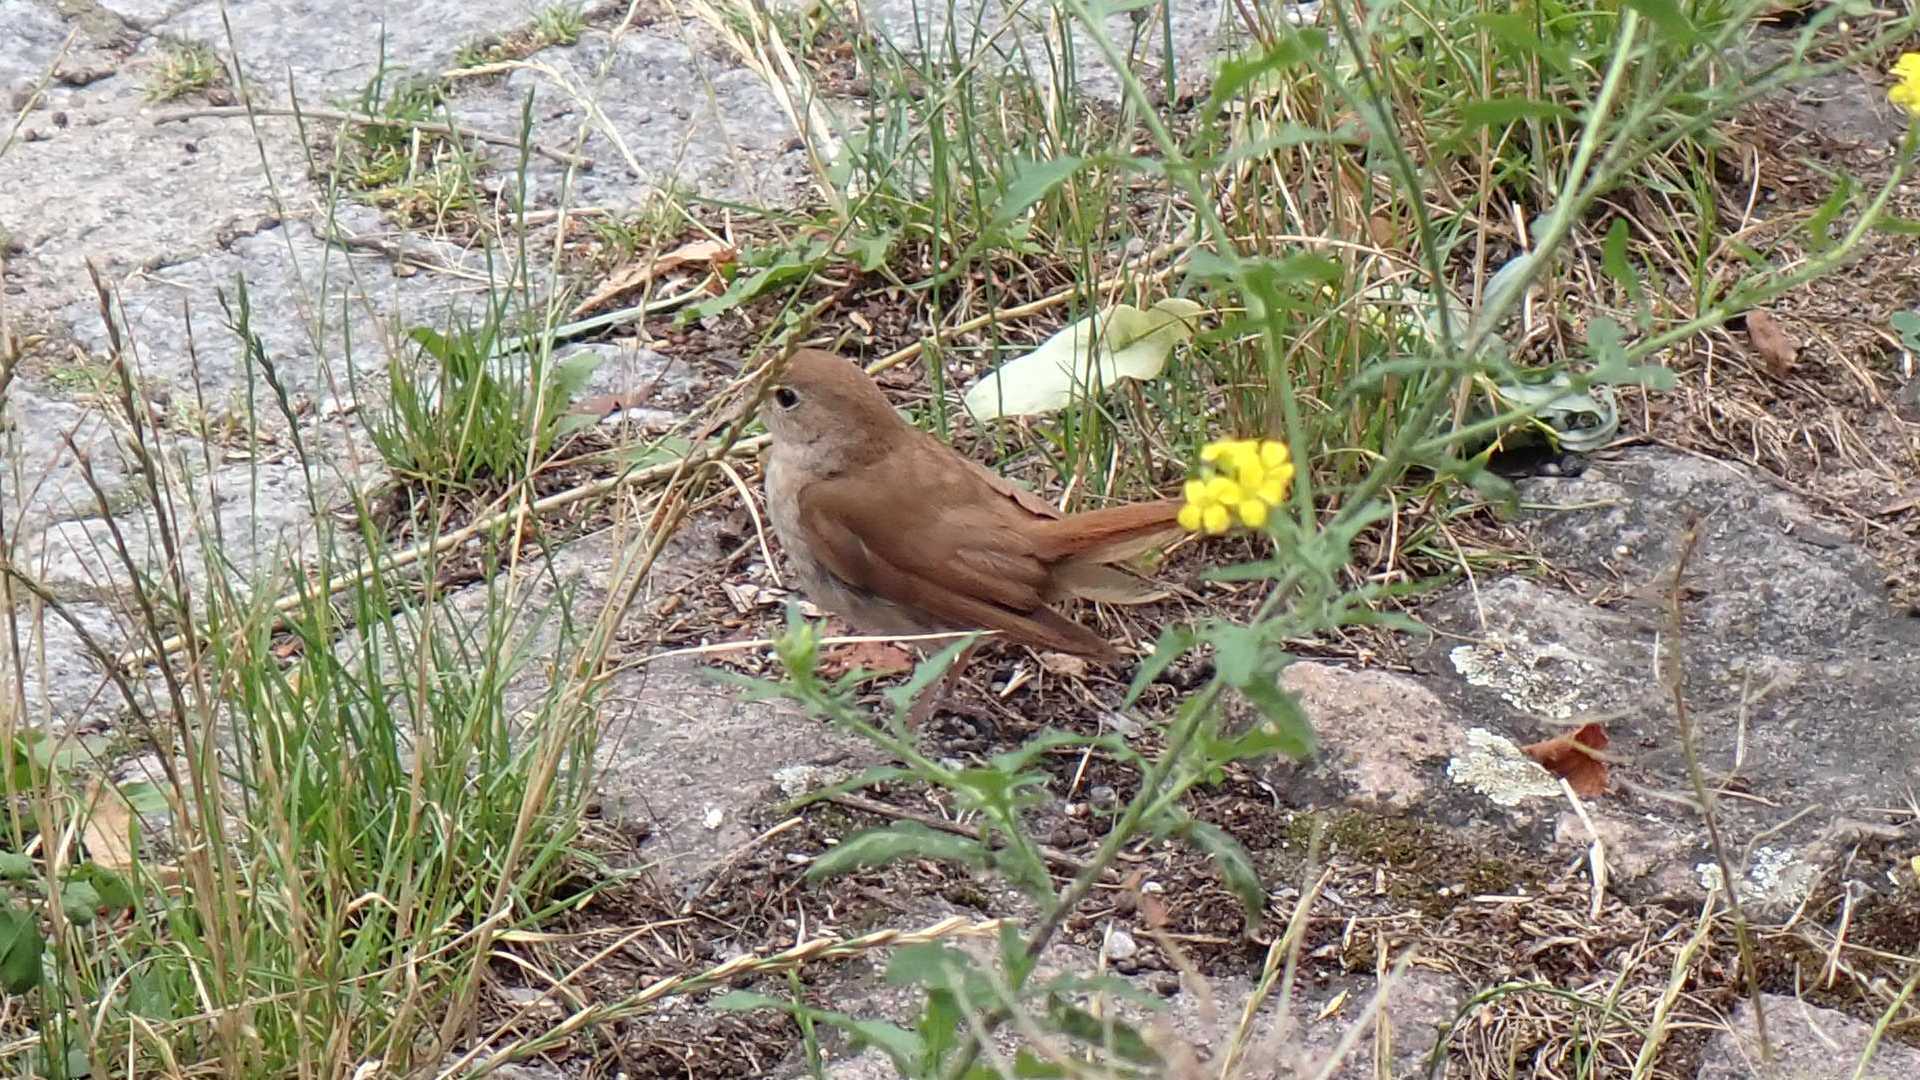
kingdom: Animalia
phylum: Chordata
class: Aves
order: Passeriformes
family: Muscicapidae
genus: Luscinia
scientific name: Luscinia megarhynchos
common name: Common nightingale
